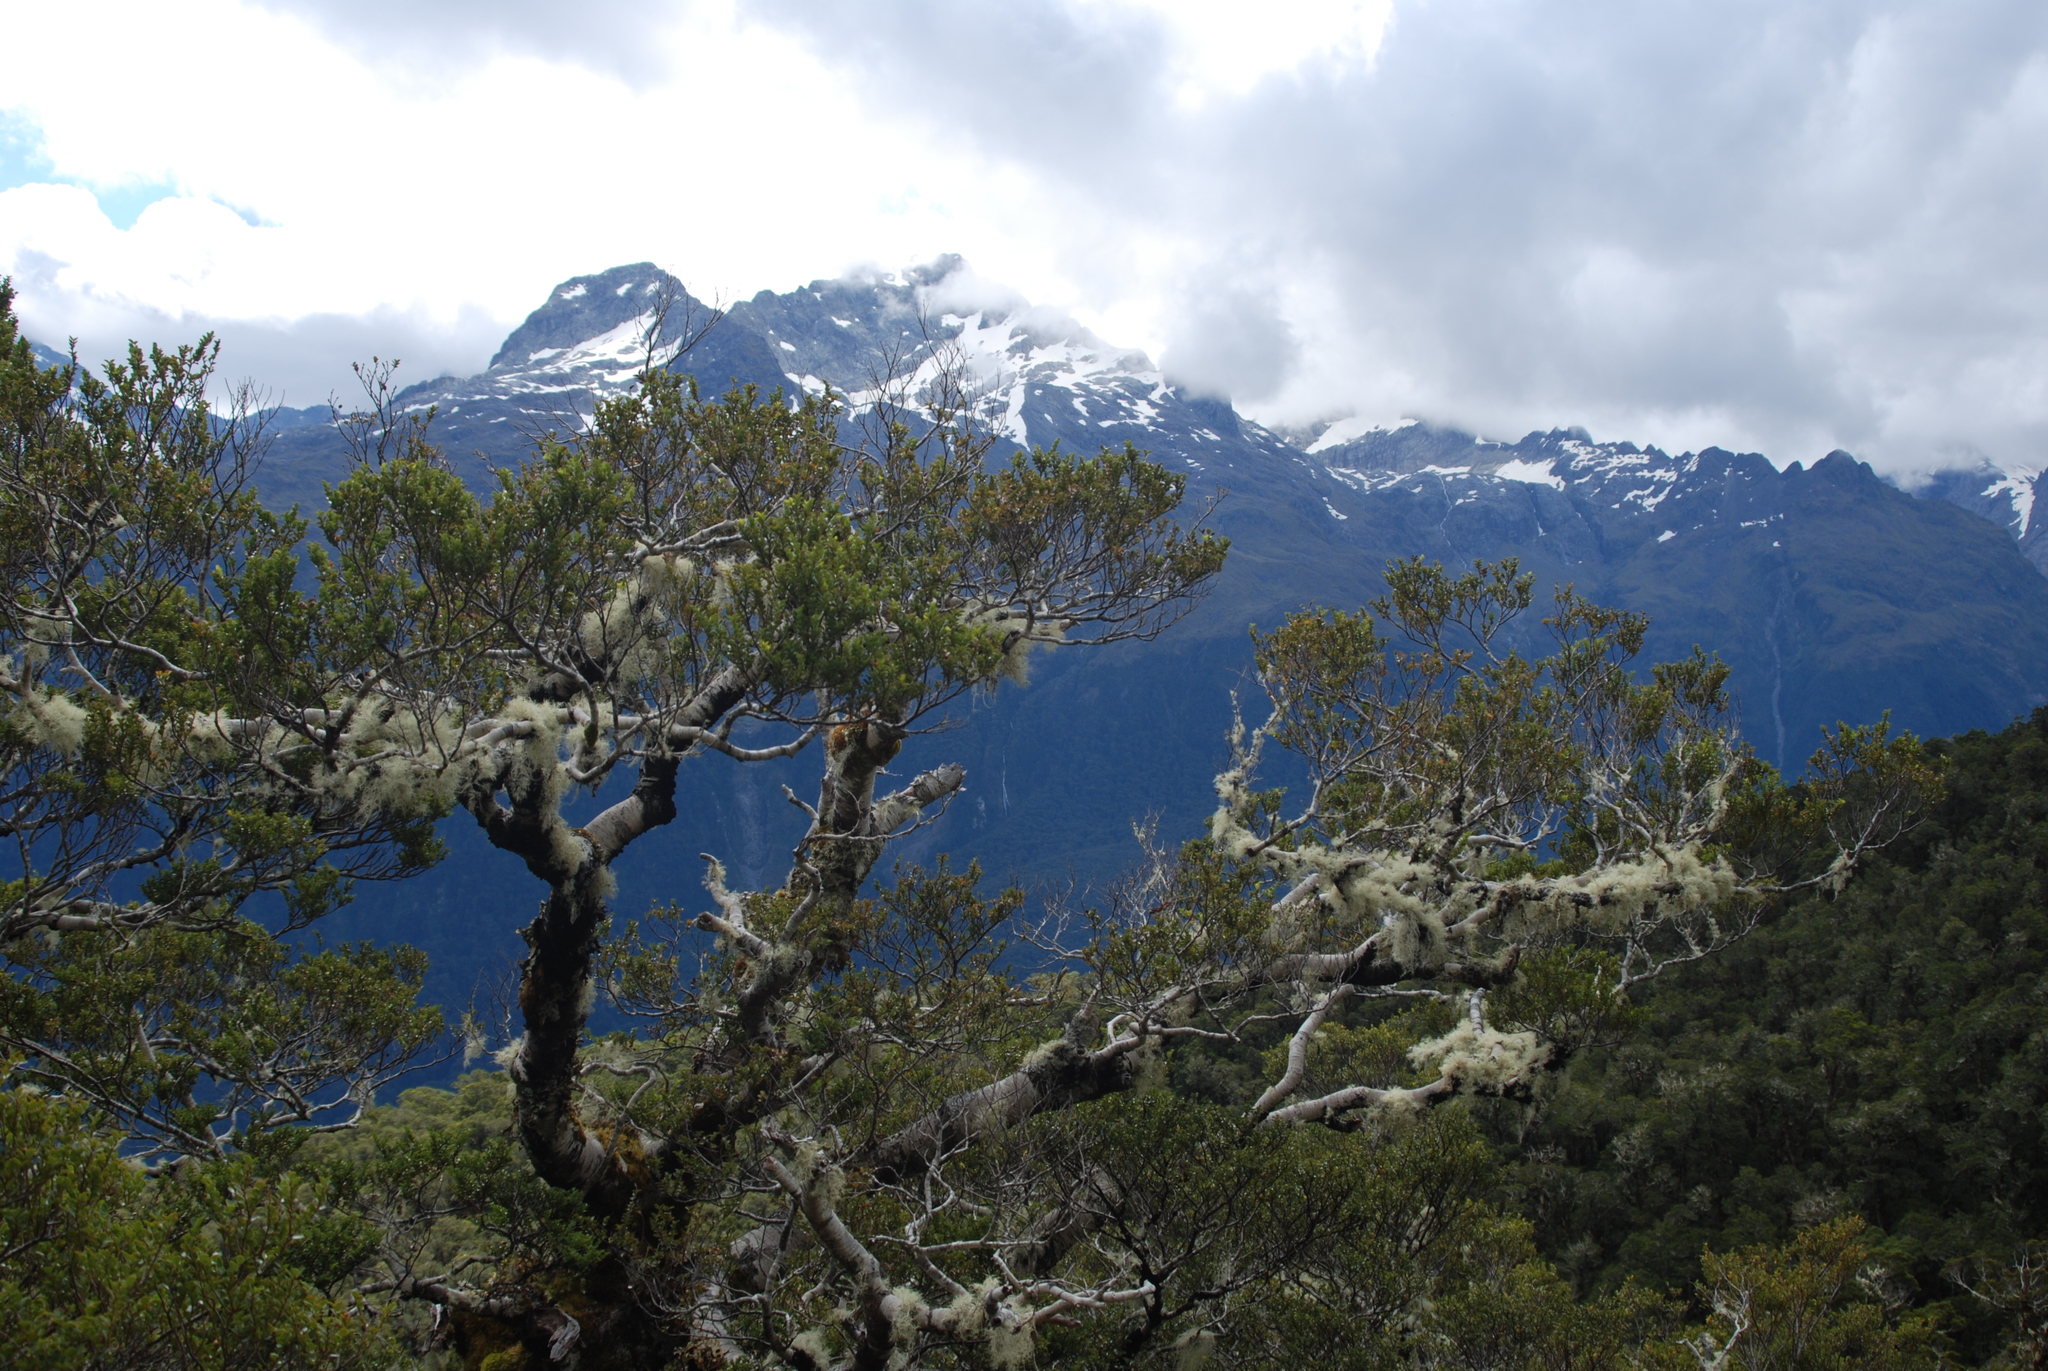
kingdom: Plantae
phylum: Tracheophyta
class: Magnoliopsida
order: Fagales
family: Nothofagaceae
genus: Nothofagus
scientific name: Nothofagus menziesii
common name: Silver beech
